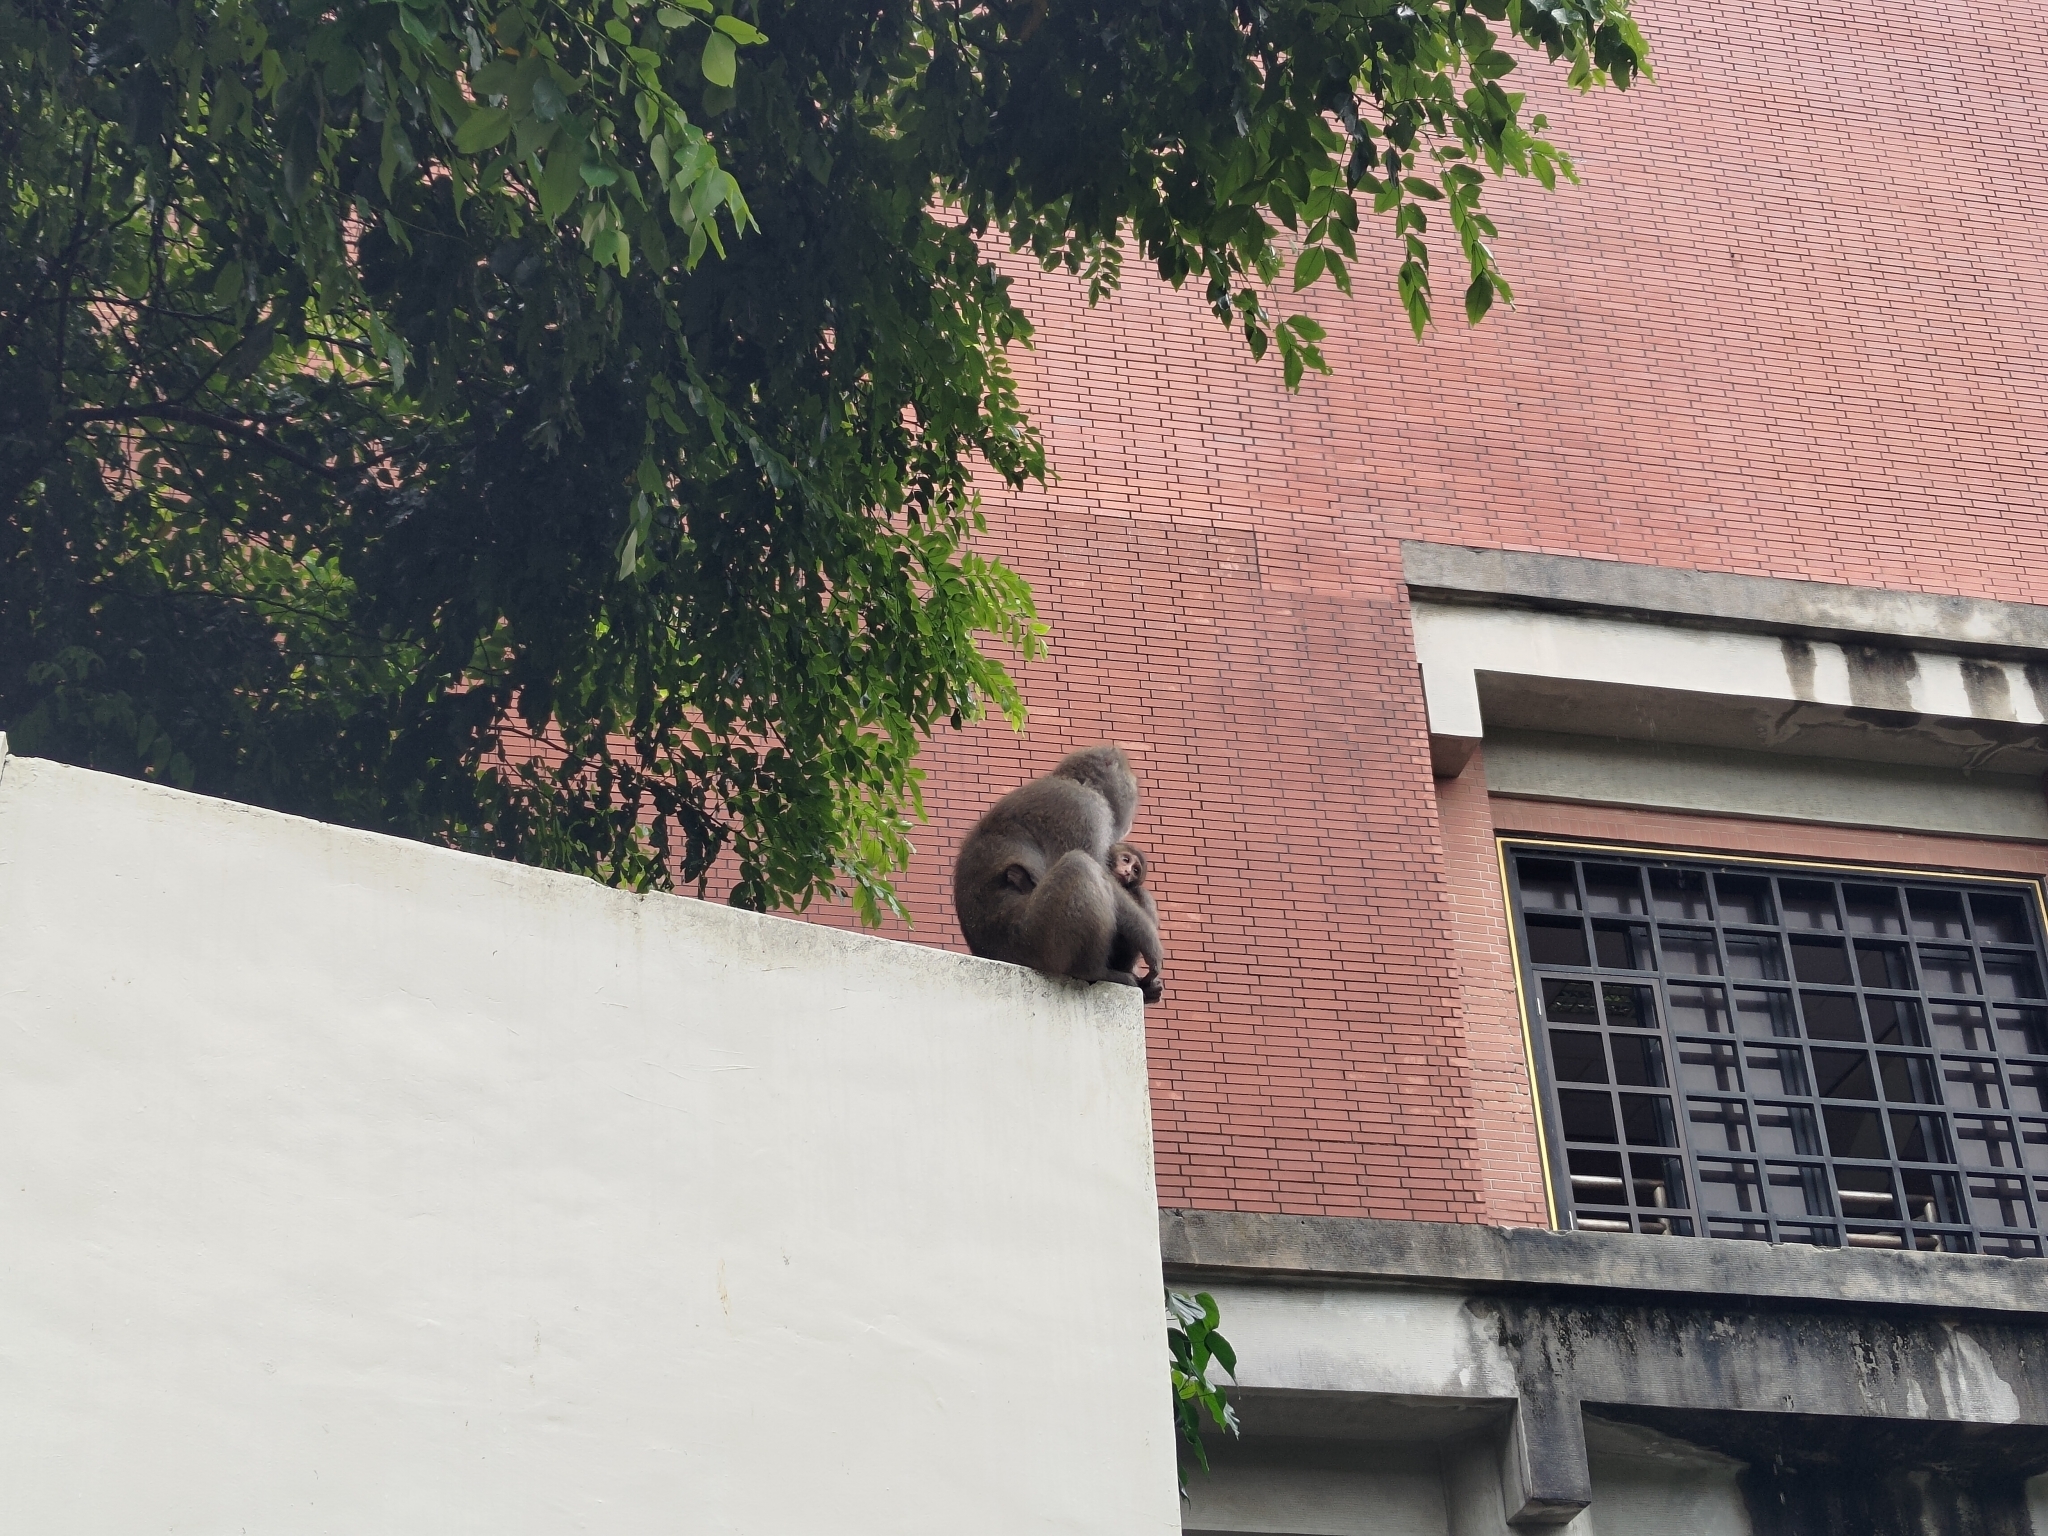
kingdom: Animalia
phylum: Chordata
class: Mammalia
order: Primates
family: Cercopithecidae
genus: Macaca
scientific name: Macaca cyclopis
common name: Formosan rock macaque
